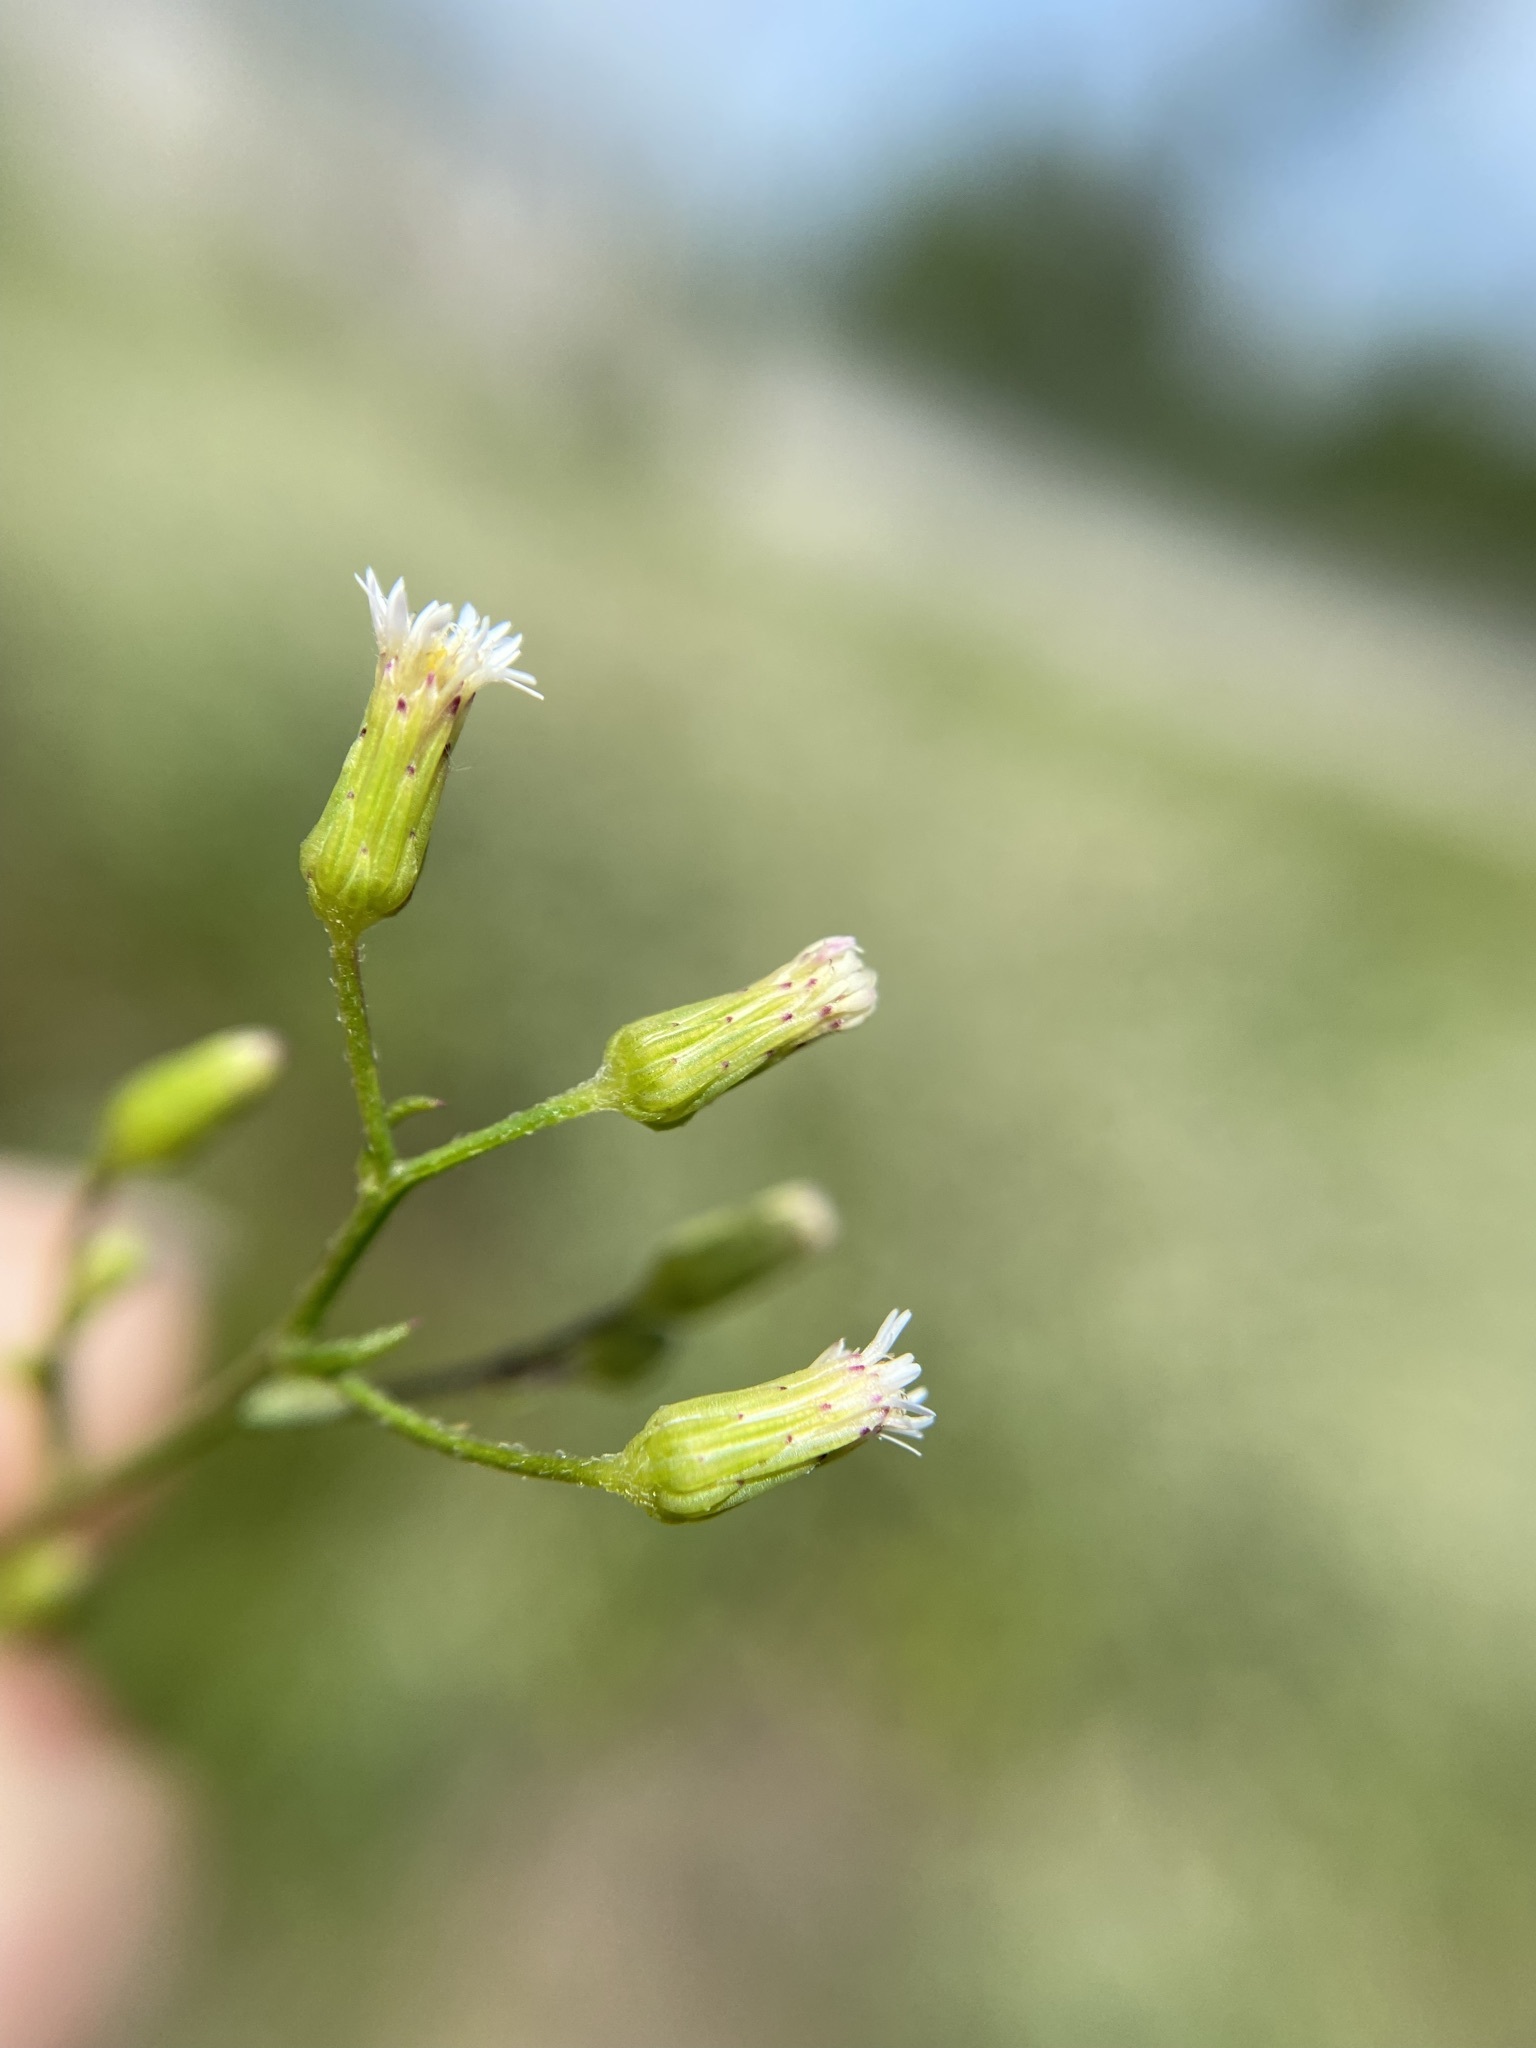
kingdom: Plantae
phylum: Tracheophyta
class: Magnoliopsida
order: Asterales
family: Asteraceae
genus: Erigeron
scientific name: Erigeron canadensis
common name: Canadian fleabane
